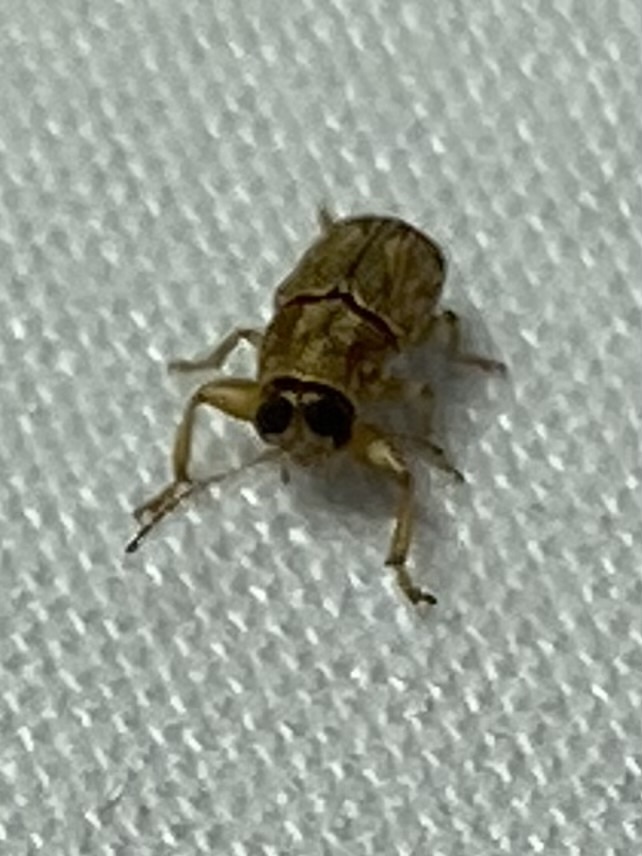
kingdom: Animalia
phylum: Arthropoda
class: Insecta
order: Coleoptera
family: Chrysomelidae
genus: Pachybrachis
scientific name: Pachybrachis texanus
